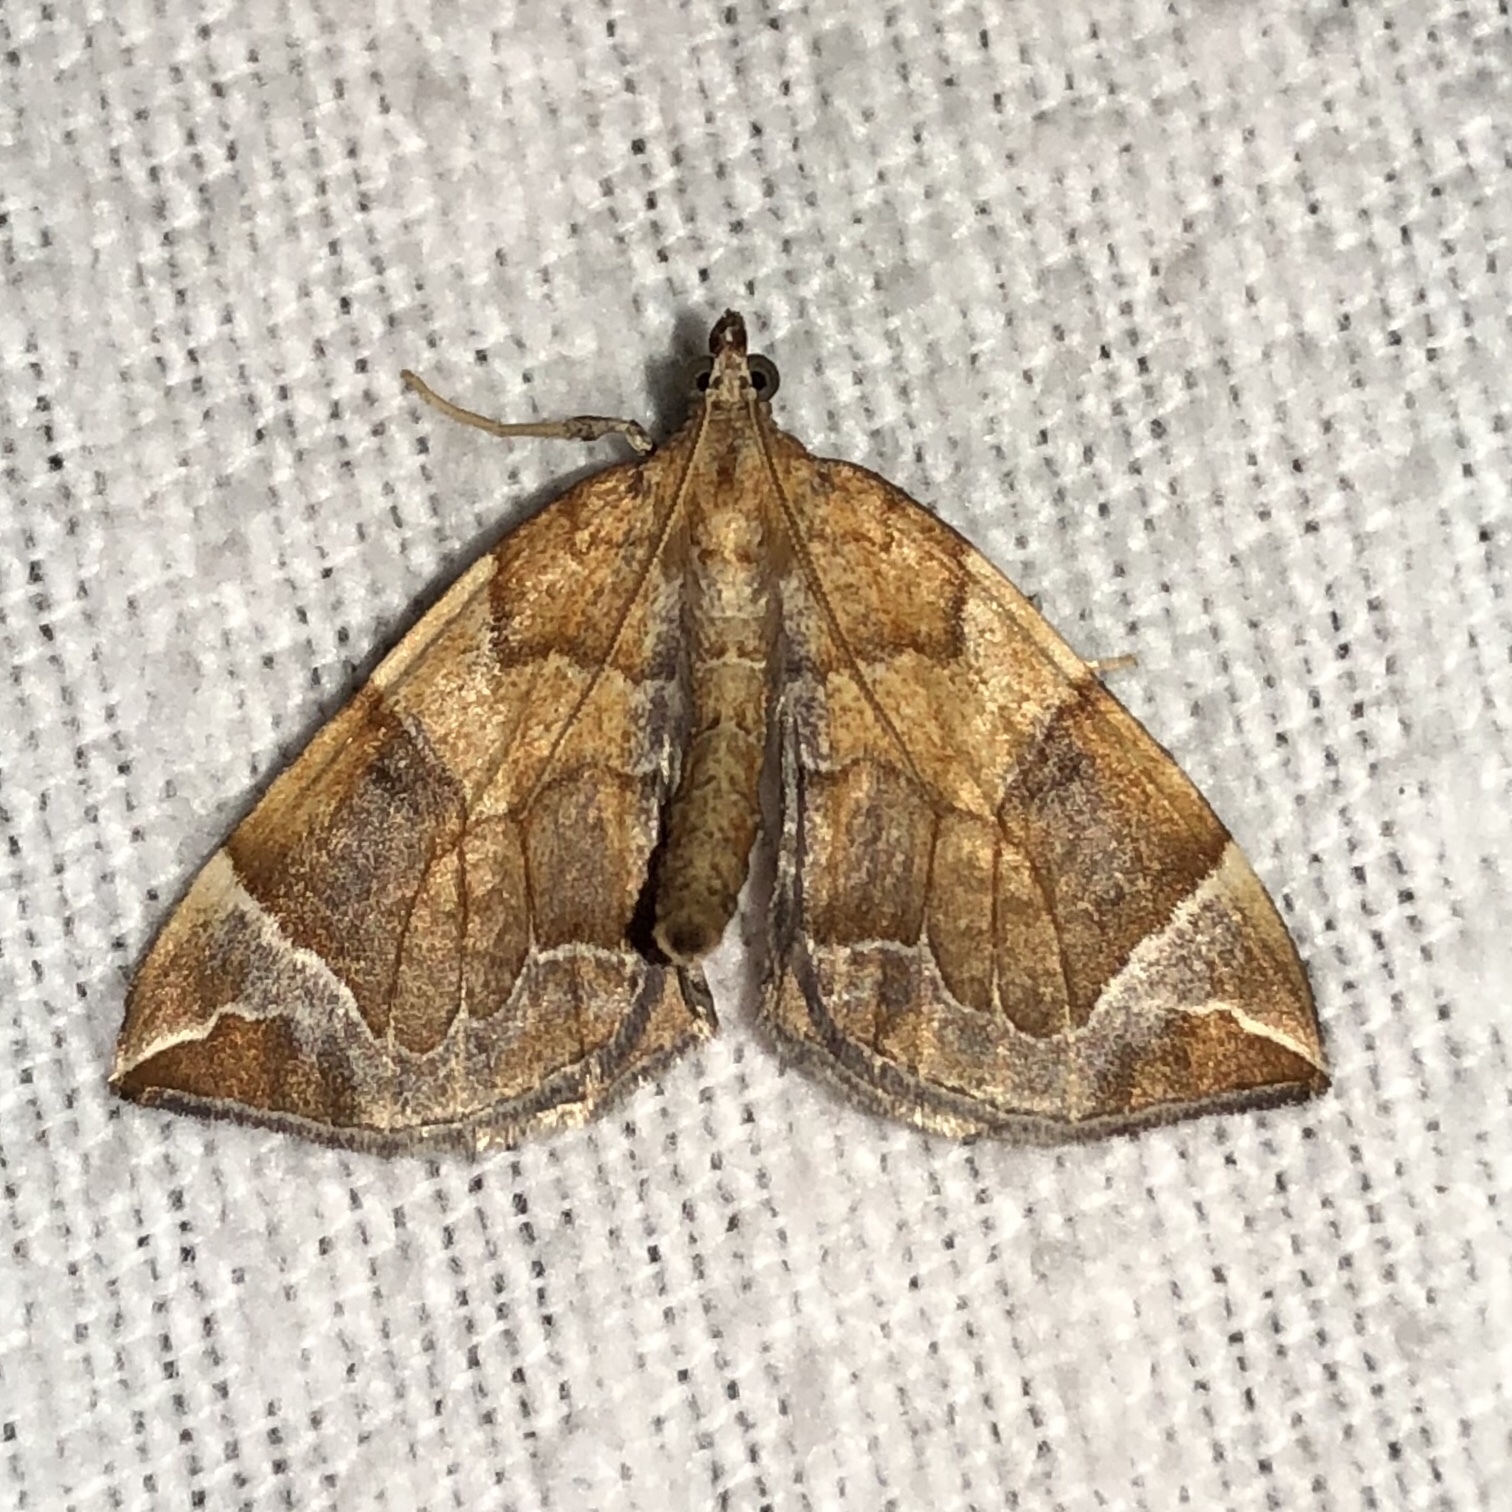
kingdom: Animalia
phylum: Arthropoda
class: Insecta
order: Lepidoptera
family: Geometridae
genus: Eulithis
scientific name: Eulithis testata
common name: Chevron
